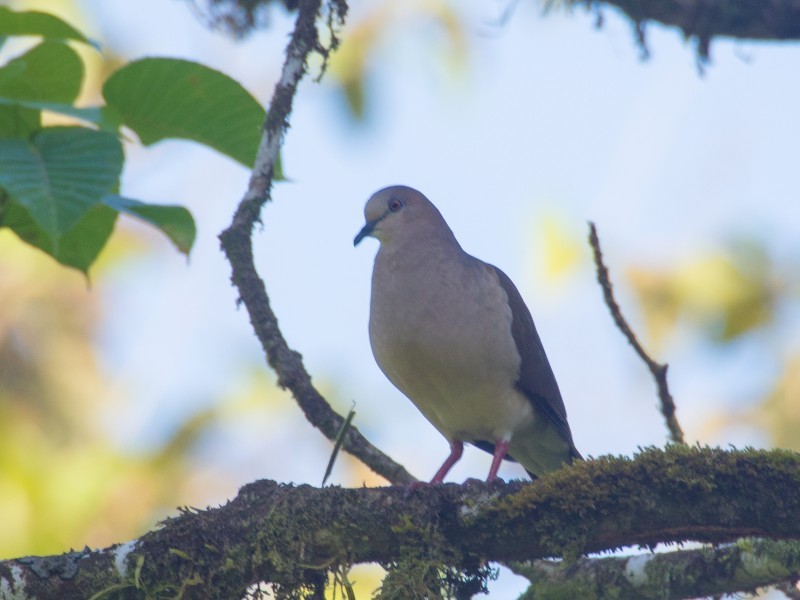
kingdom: Animalia
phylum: Chordata
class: Aves
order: Columbiformes
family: Columbidae
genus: Leptotila
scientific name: Leptotila verreauxi
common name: White-tipped dove
